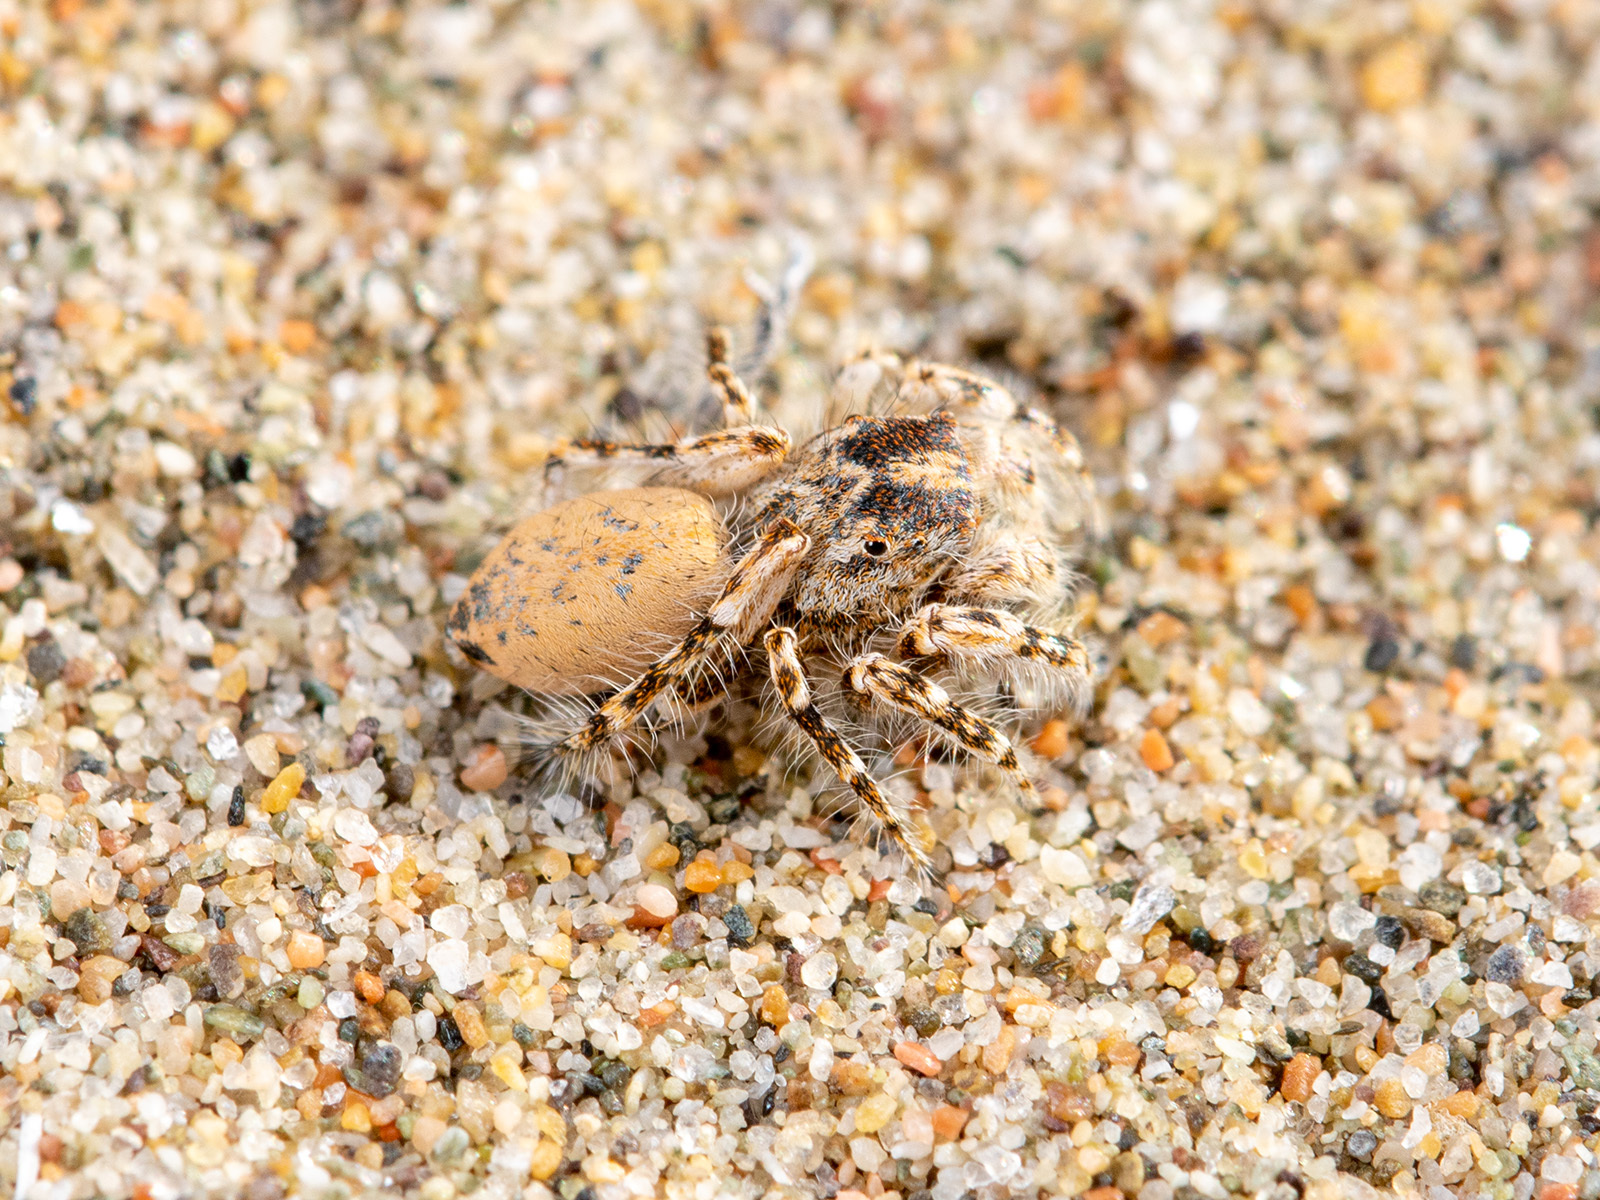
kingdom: Animalia
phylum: Arthropoda
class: Arachnida
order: Araneae
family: Salticidae
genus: Yllenus
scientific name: Yllenus turkestanicus
